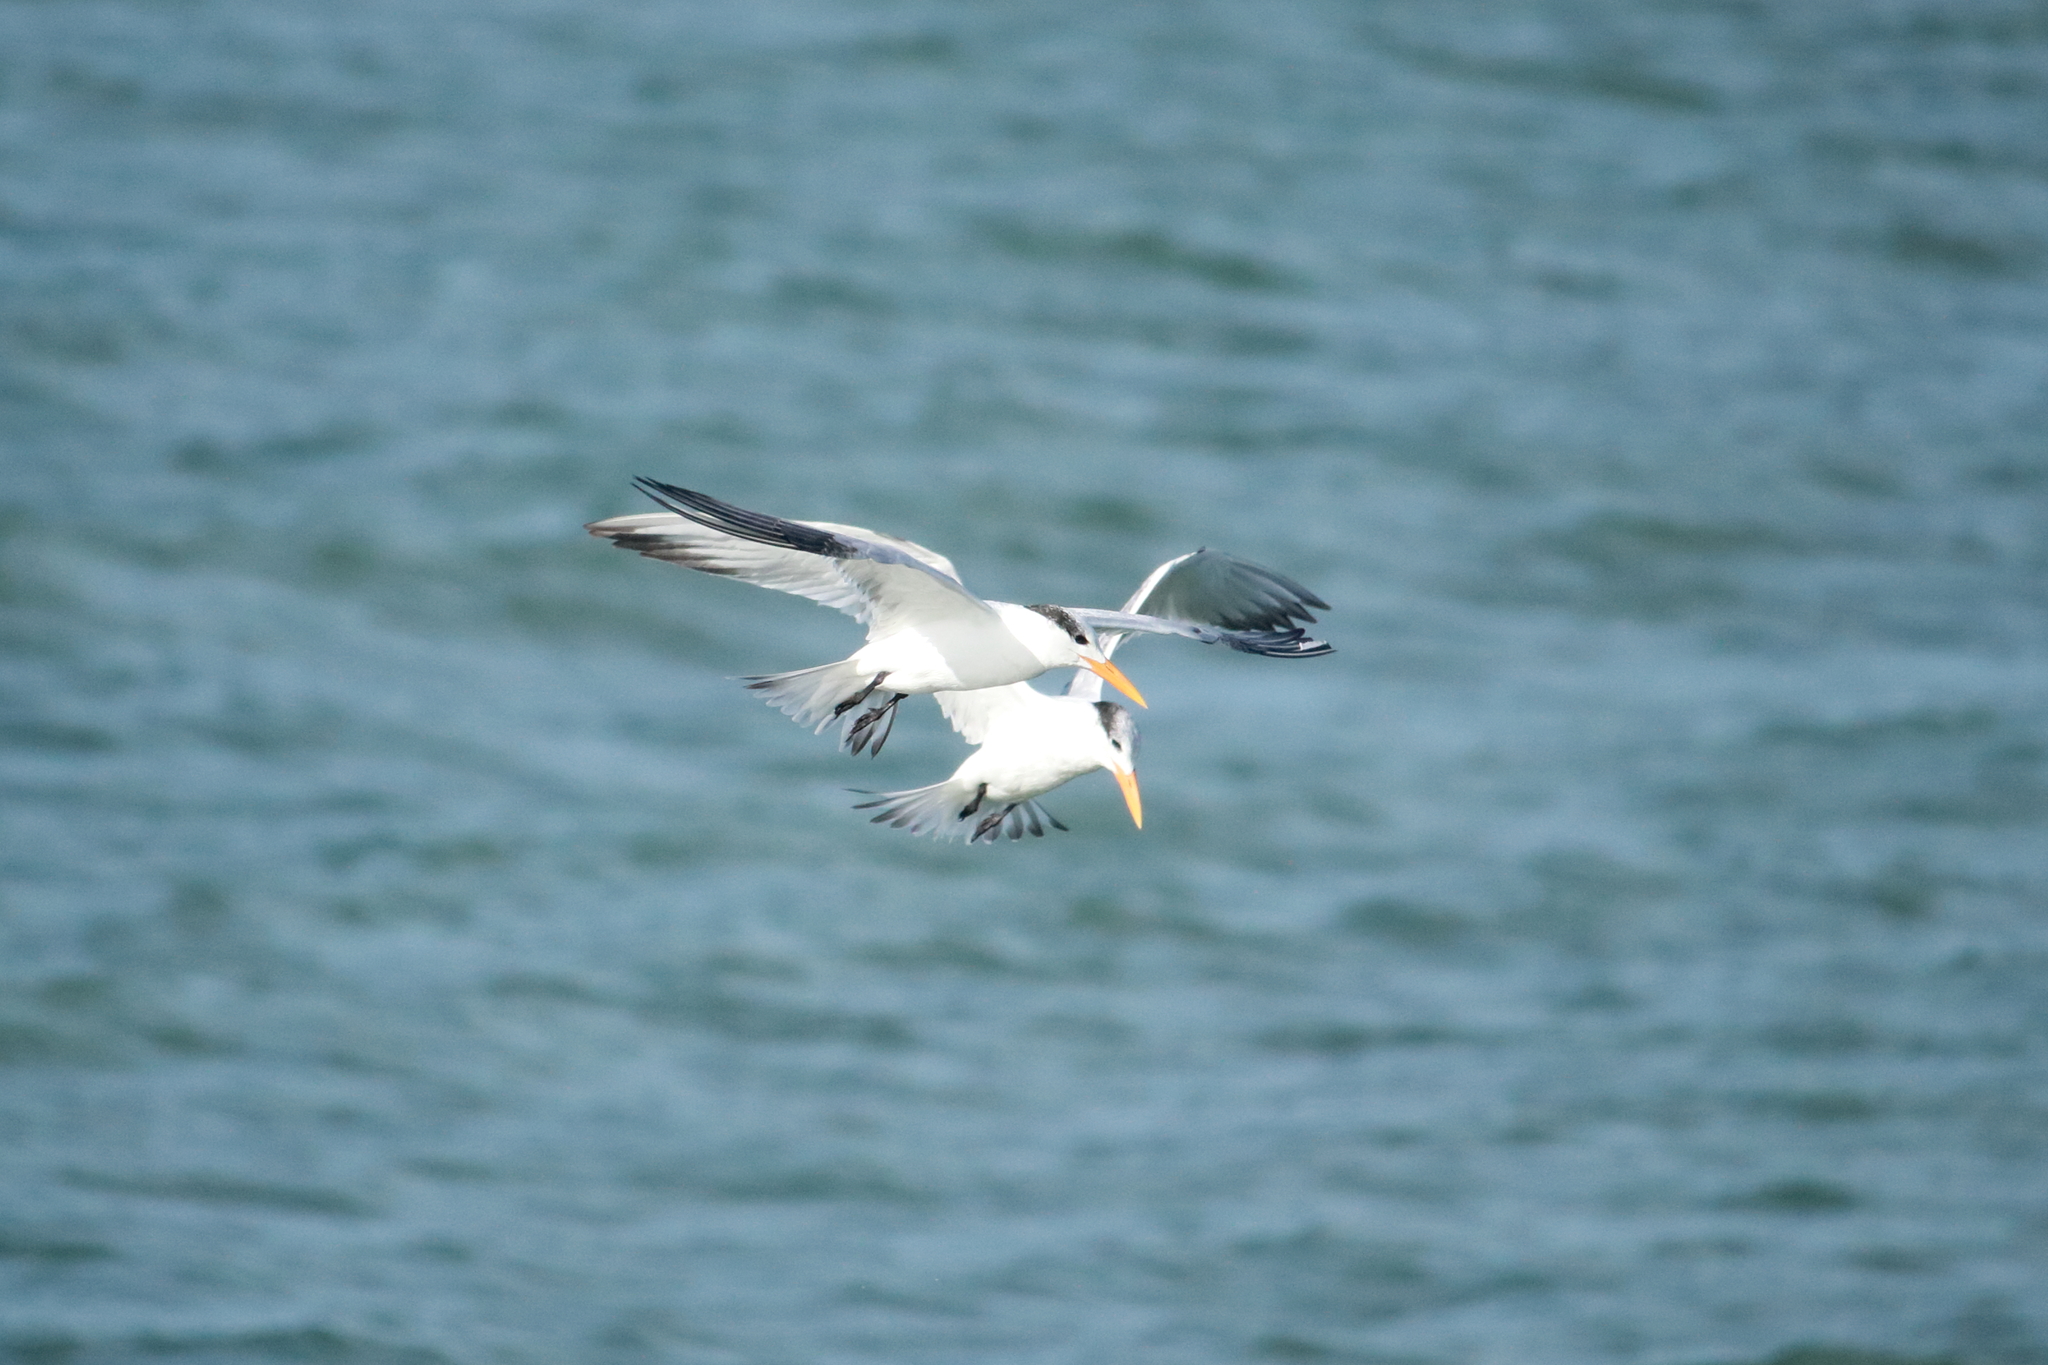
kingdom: Animalia
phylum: Chordata
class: Aves
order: Charadriiformes
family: Laridae
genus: Thalasseus
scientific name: Thalasseus maximus
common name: Royal tern
